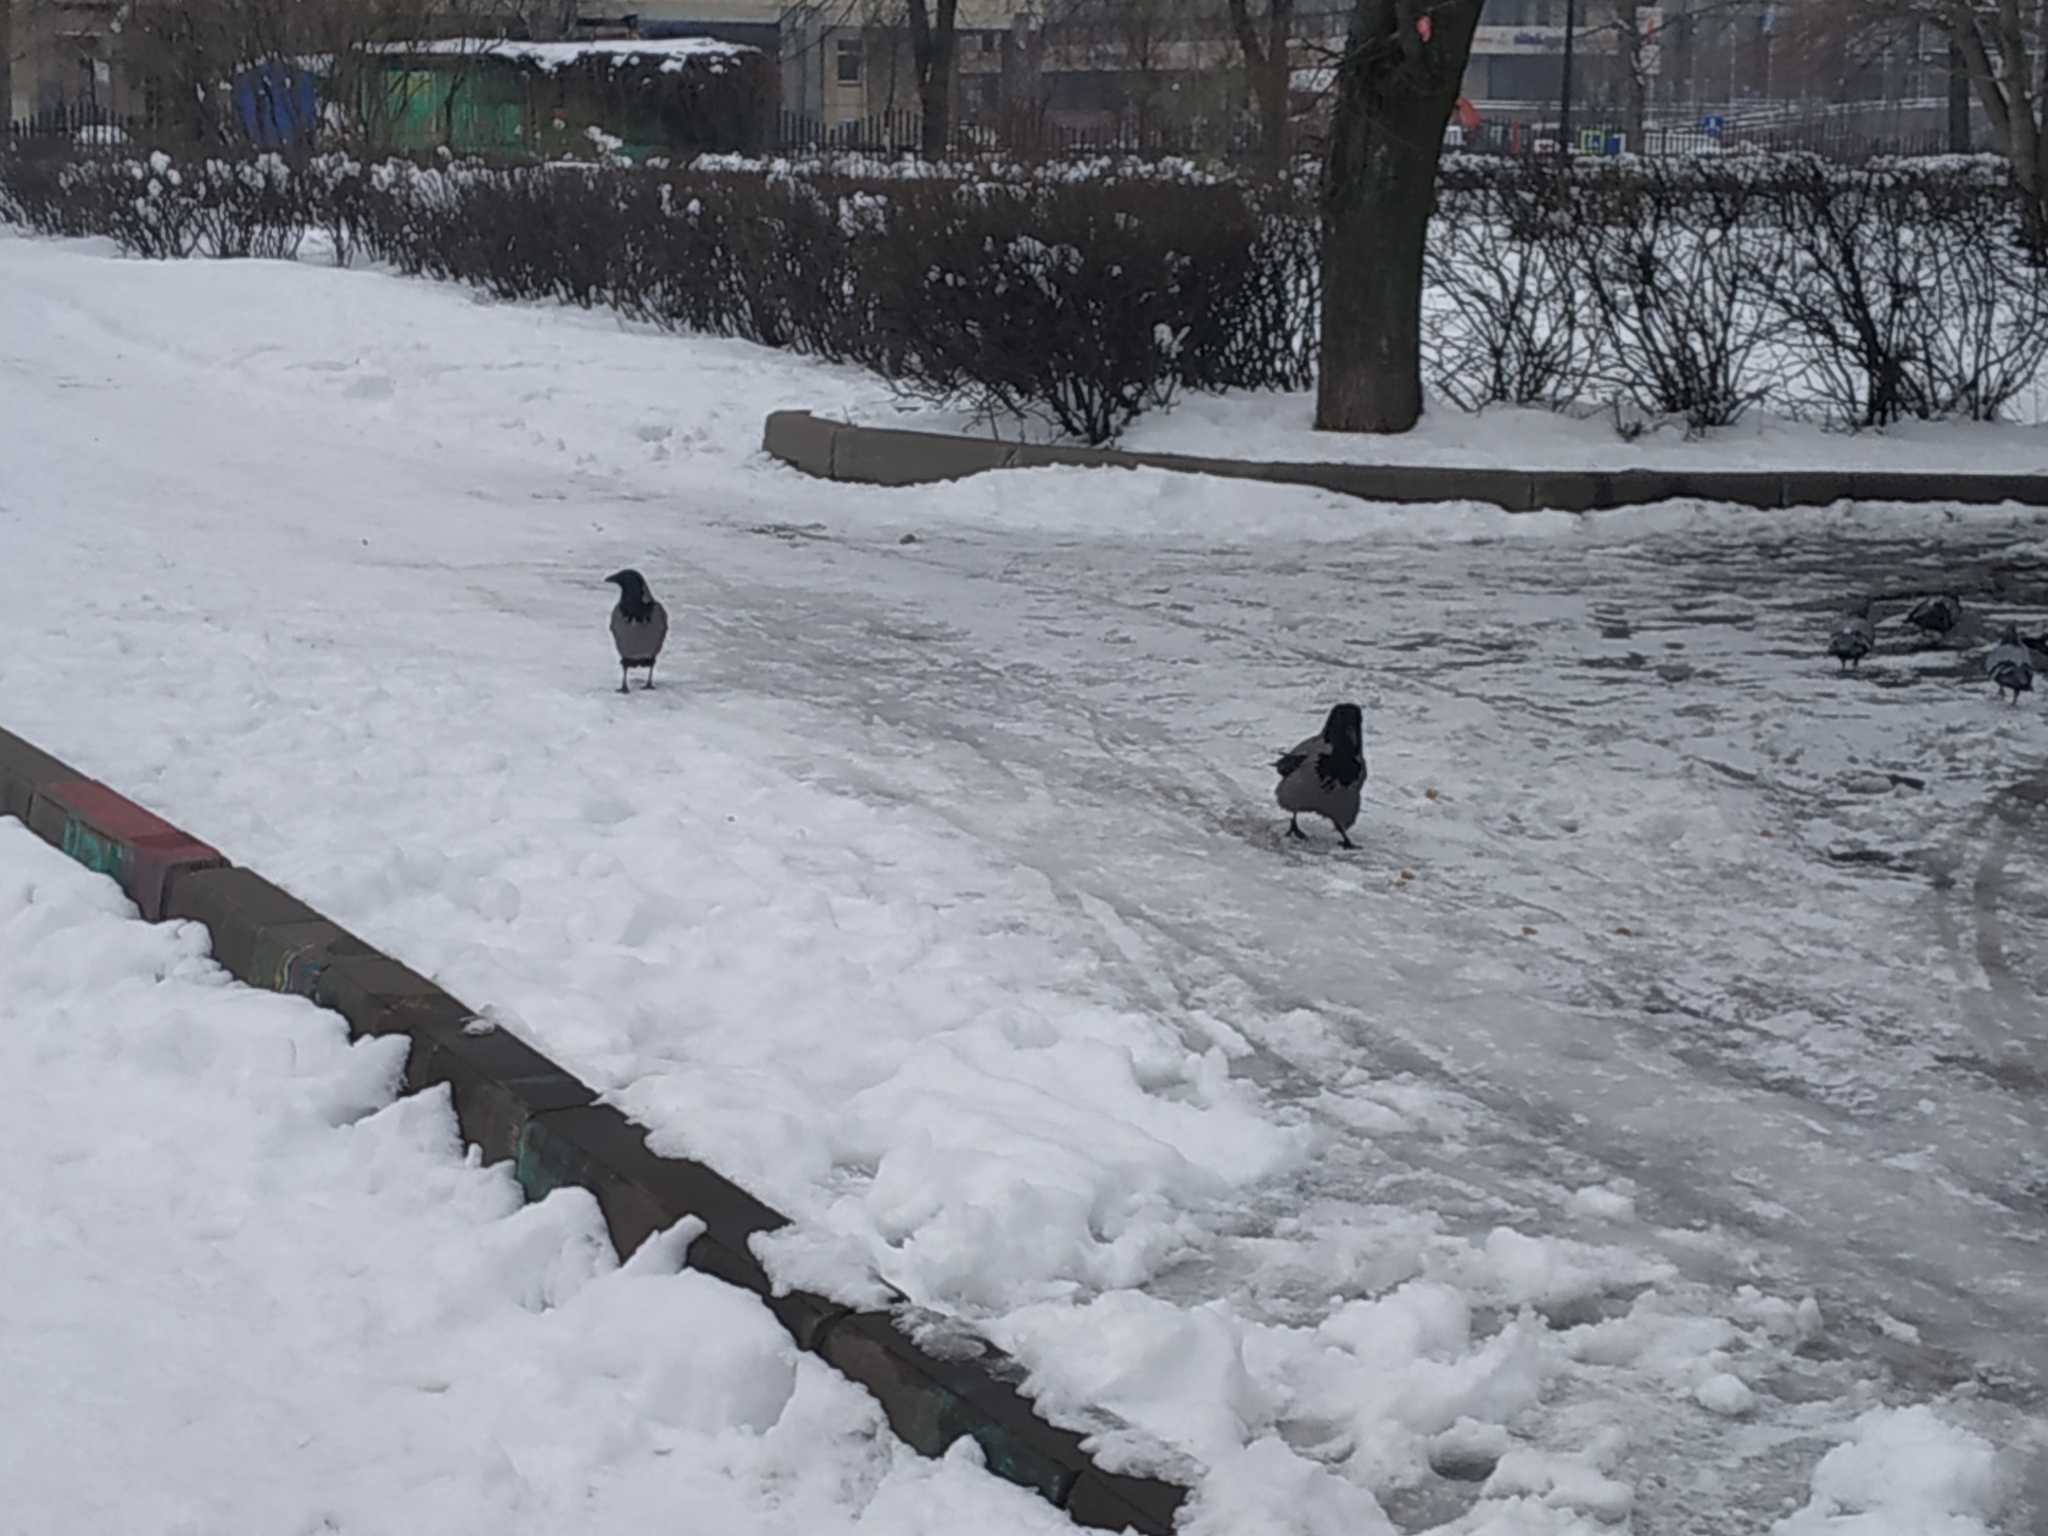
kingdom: Animalia
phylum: Chordata
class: Aves
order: Passeriformes
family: Corvidae
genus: Corvus
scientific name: Corvus cornix
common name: Hooded crow
